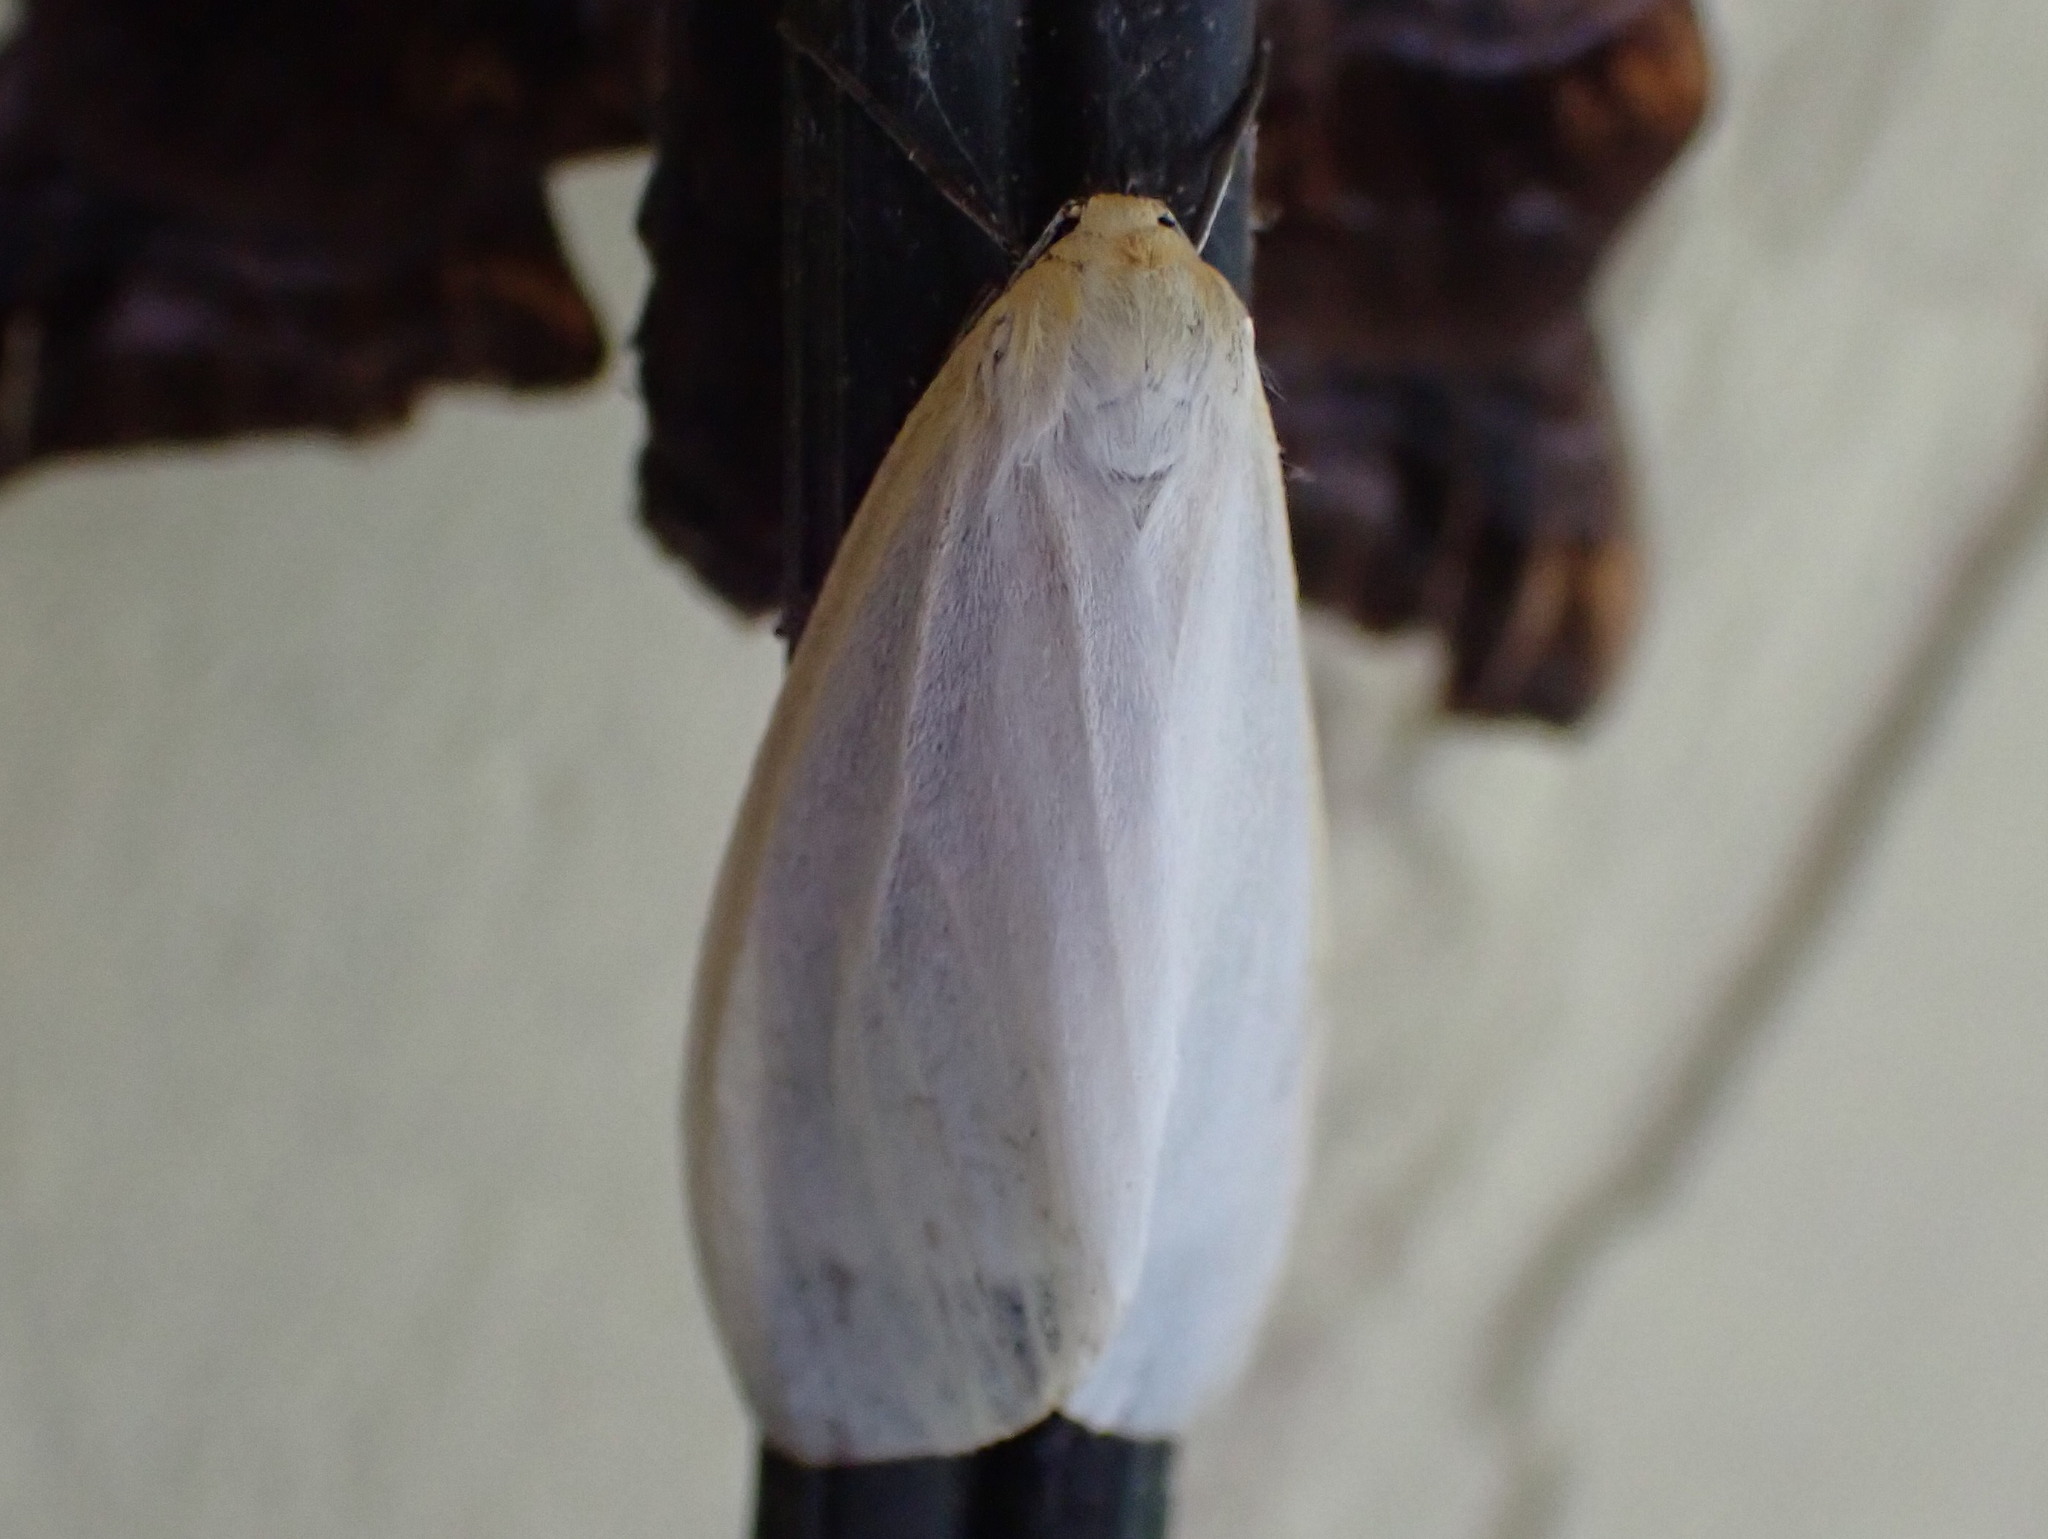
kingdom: Animalia
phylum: Arthropoda
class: Insecta
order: Lepidoptera
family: Erebidae
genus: Cycnia
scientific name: Cycnia tenera
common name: Delicate cycnia moth
